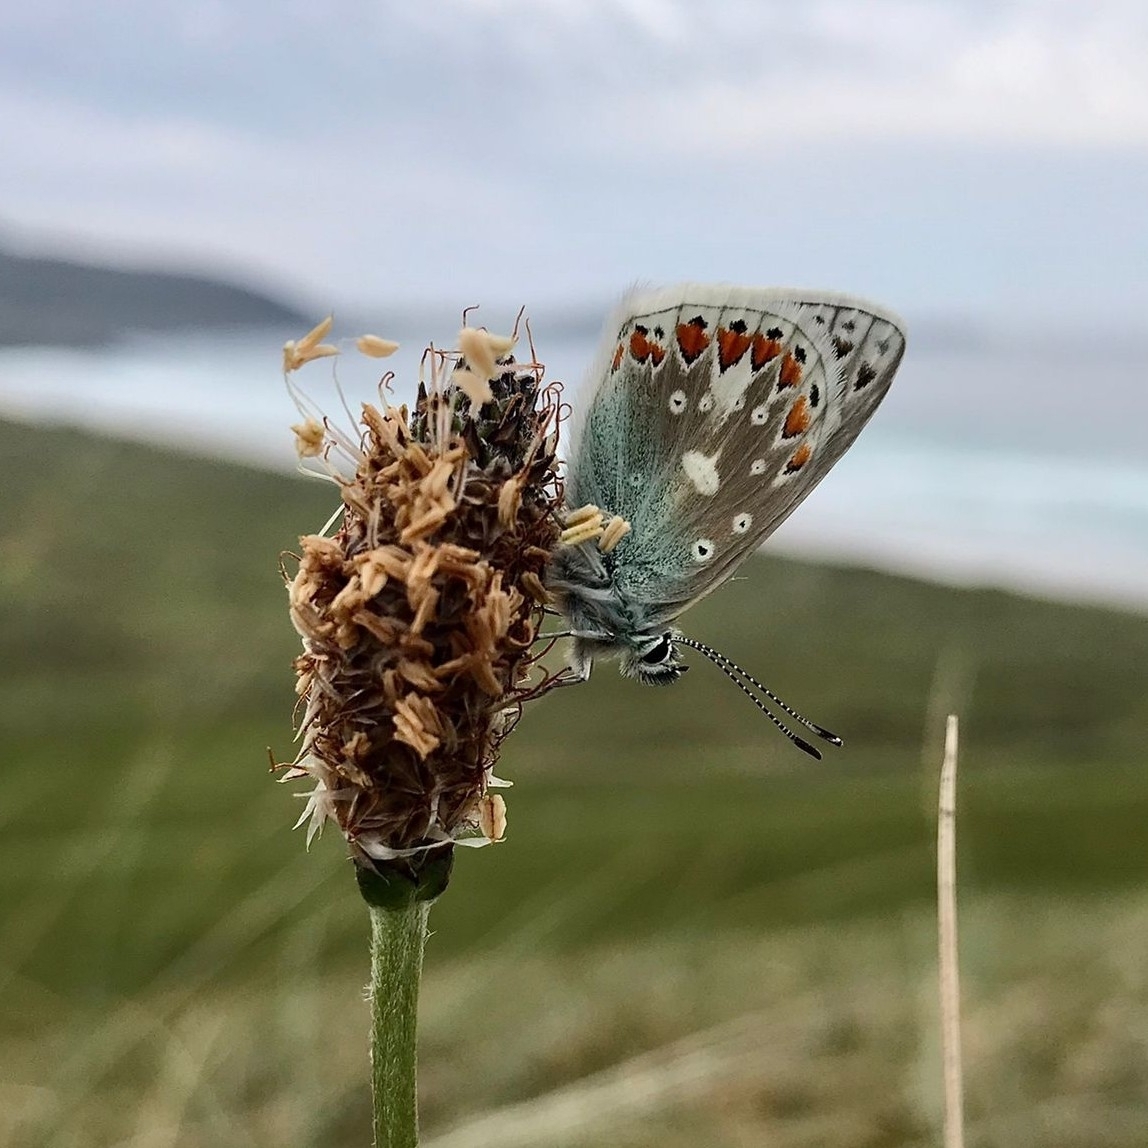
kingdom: Animalia
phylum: Arthropoda
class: Insecta
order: Lepidoptera
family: Lycaenidae
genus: Polyommatus
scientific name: Polyommatus icarus
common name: Common blue
